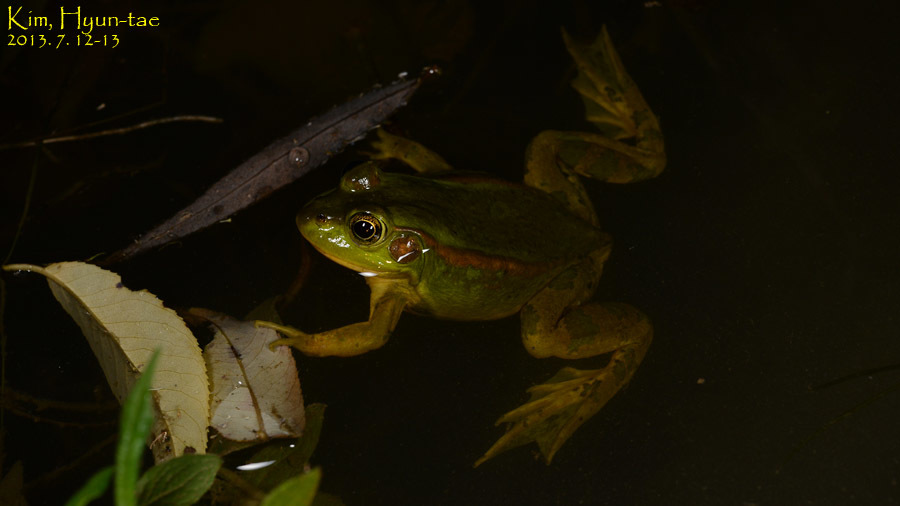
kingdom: Animalia
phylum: Chordata
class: Amphibia
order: Anura
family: Ranidae
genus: Pelophylax
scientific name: Pelophylax chosenicus
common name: Gold-spotted pond frog
